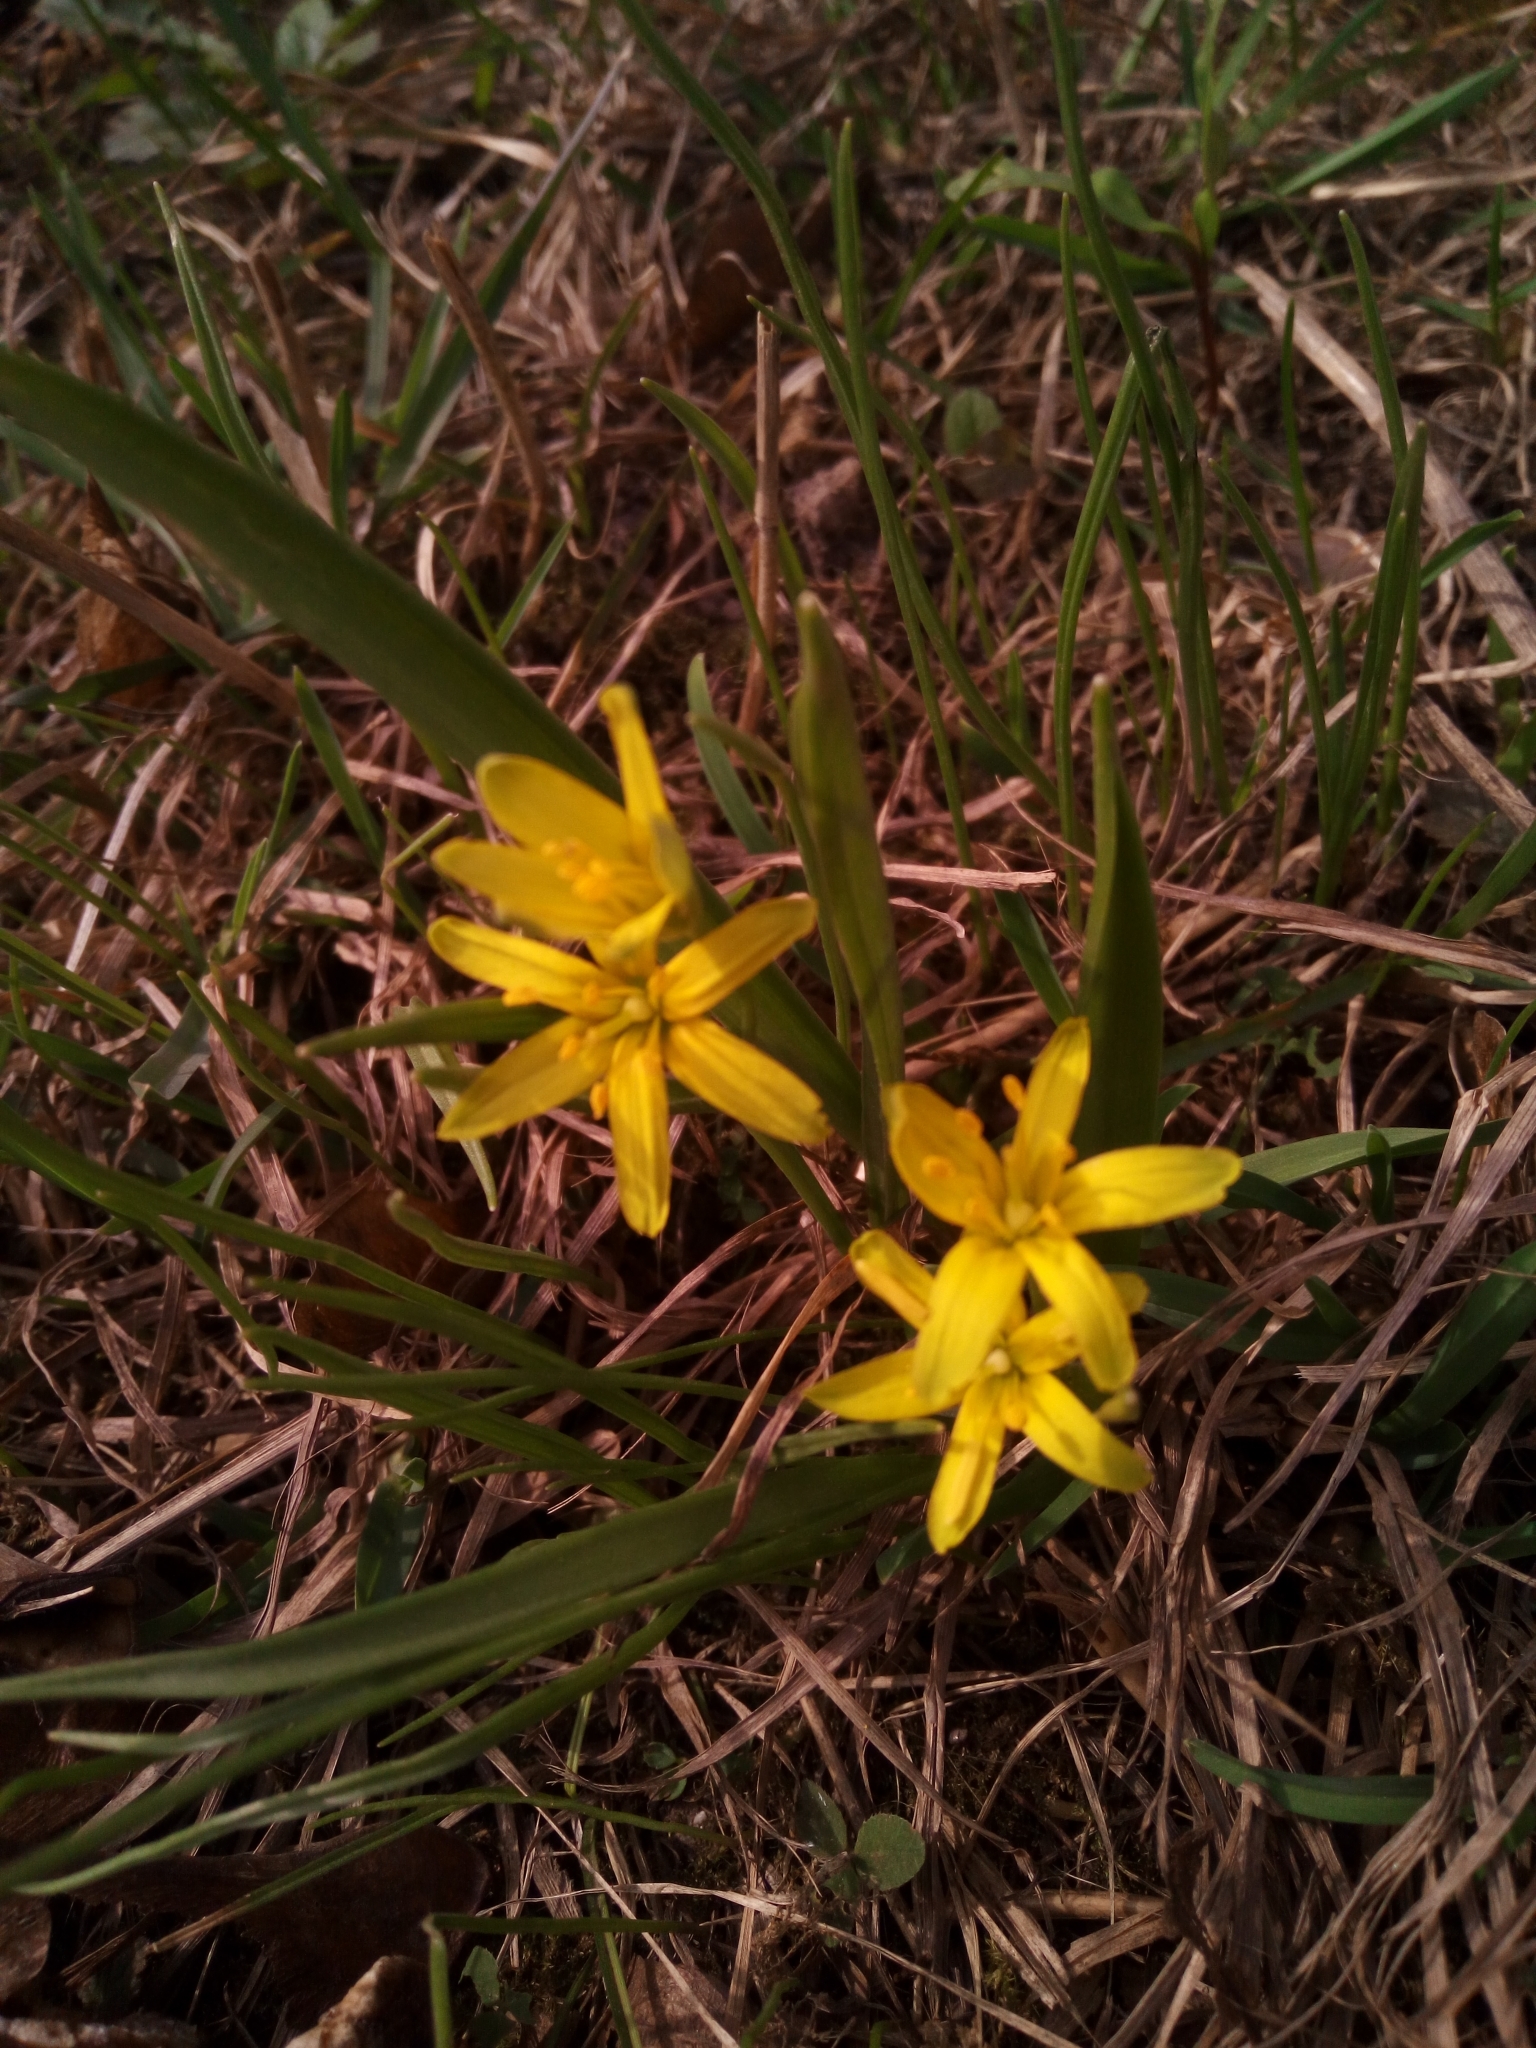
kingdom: Plantae
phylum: Tracheophyta
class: Liliopsida
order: Liliales
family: Liliaceae
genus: Gagea
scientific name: Gagea lutea
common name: Yellow star-of-bethlehem
